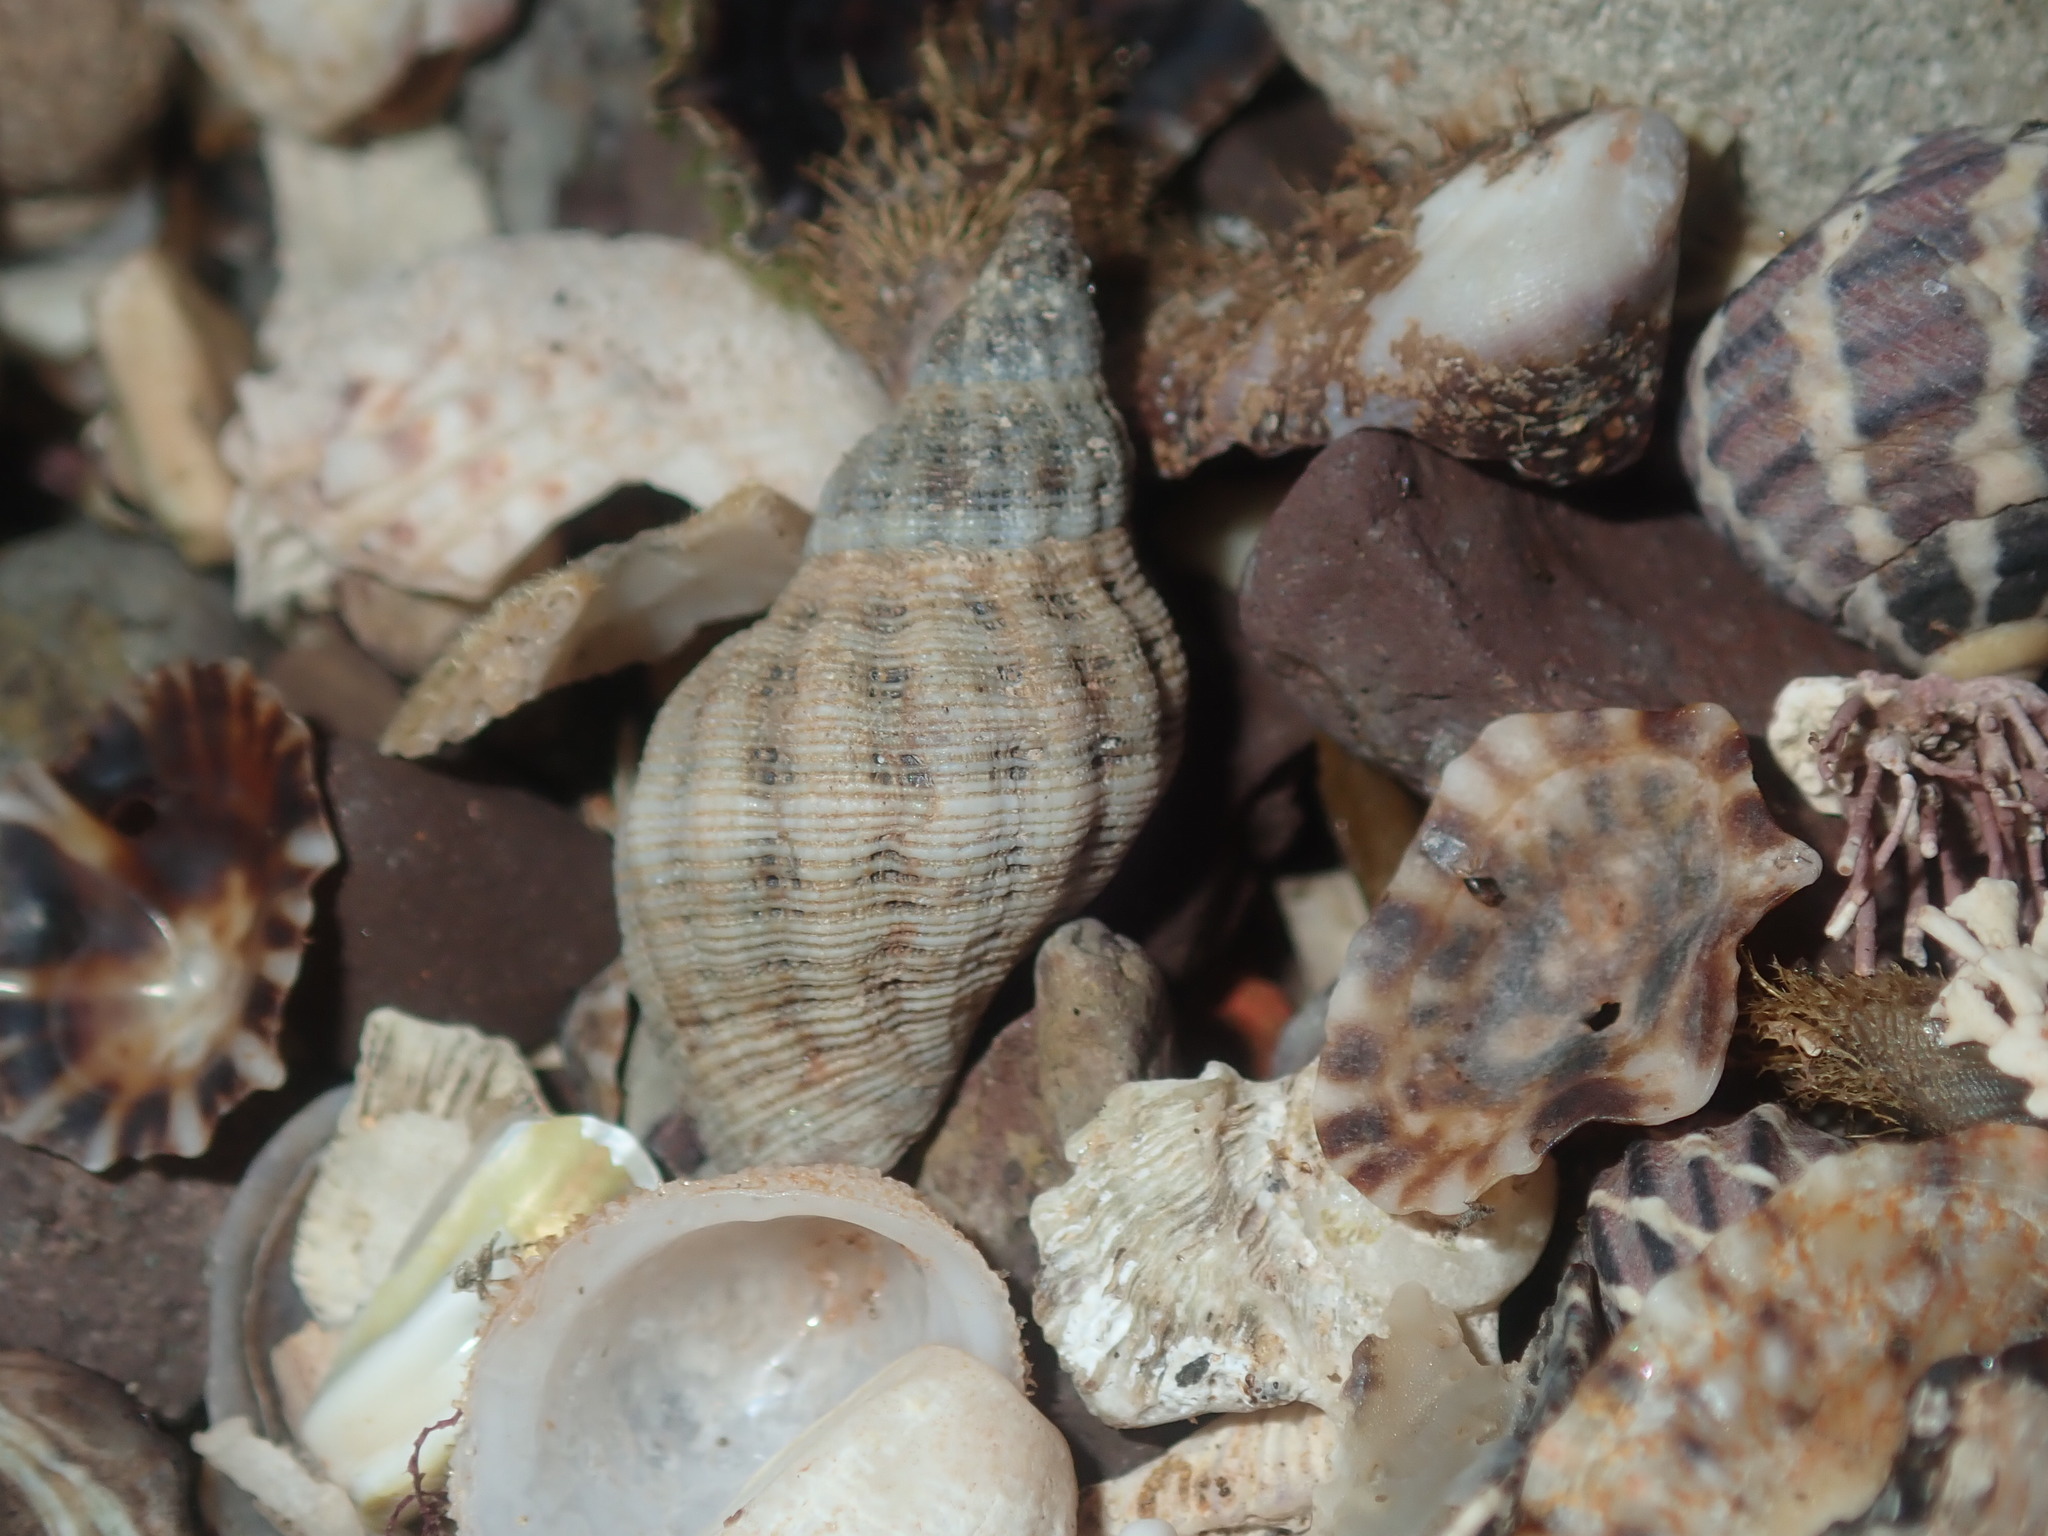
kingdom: Animalia
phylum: Mollusca
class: Gastropoda
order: Neogastropoda
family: Muricidae
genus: Agnewia
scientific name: Agnewia tritoniformis
